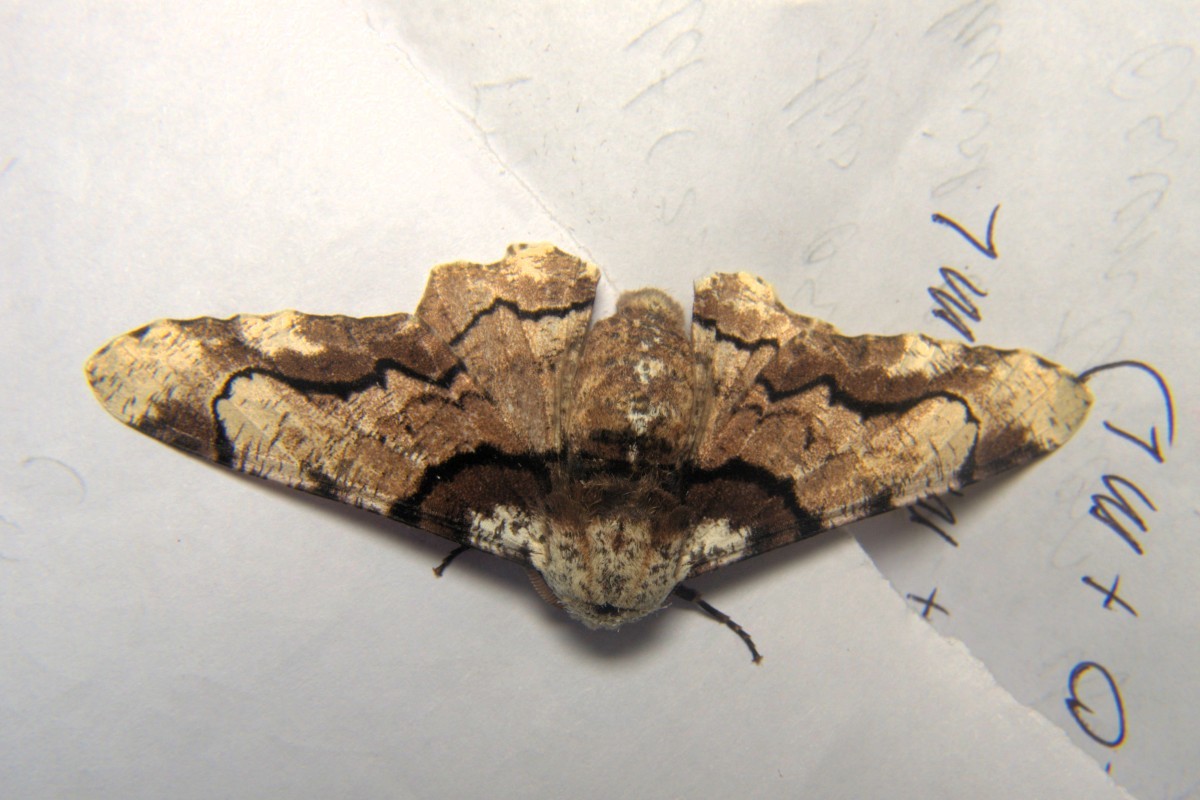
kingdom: Animalia
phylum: Arthropoda
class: Insecta
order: Lepidoptera
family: Geometridae
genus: Biston
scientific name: Biston regalis
